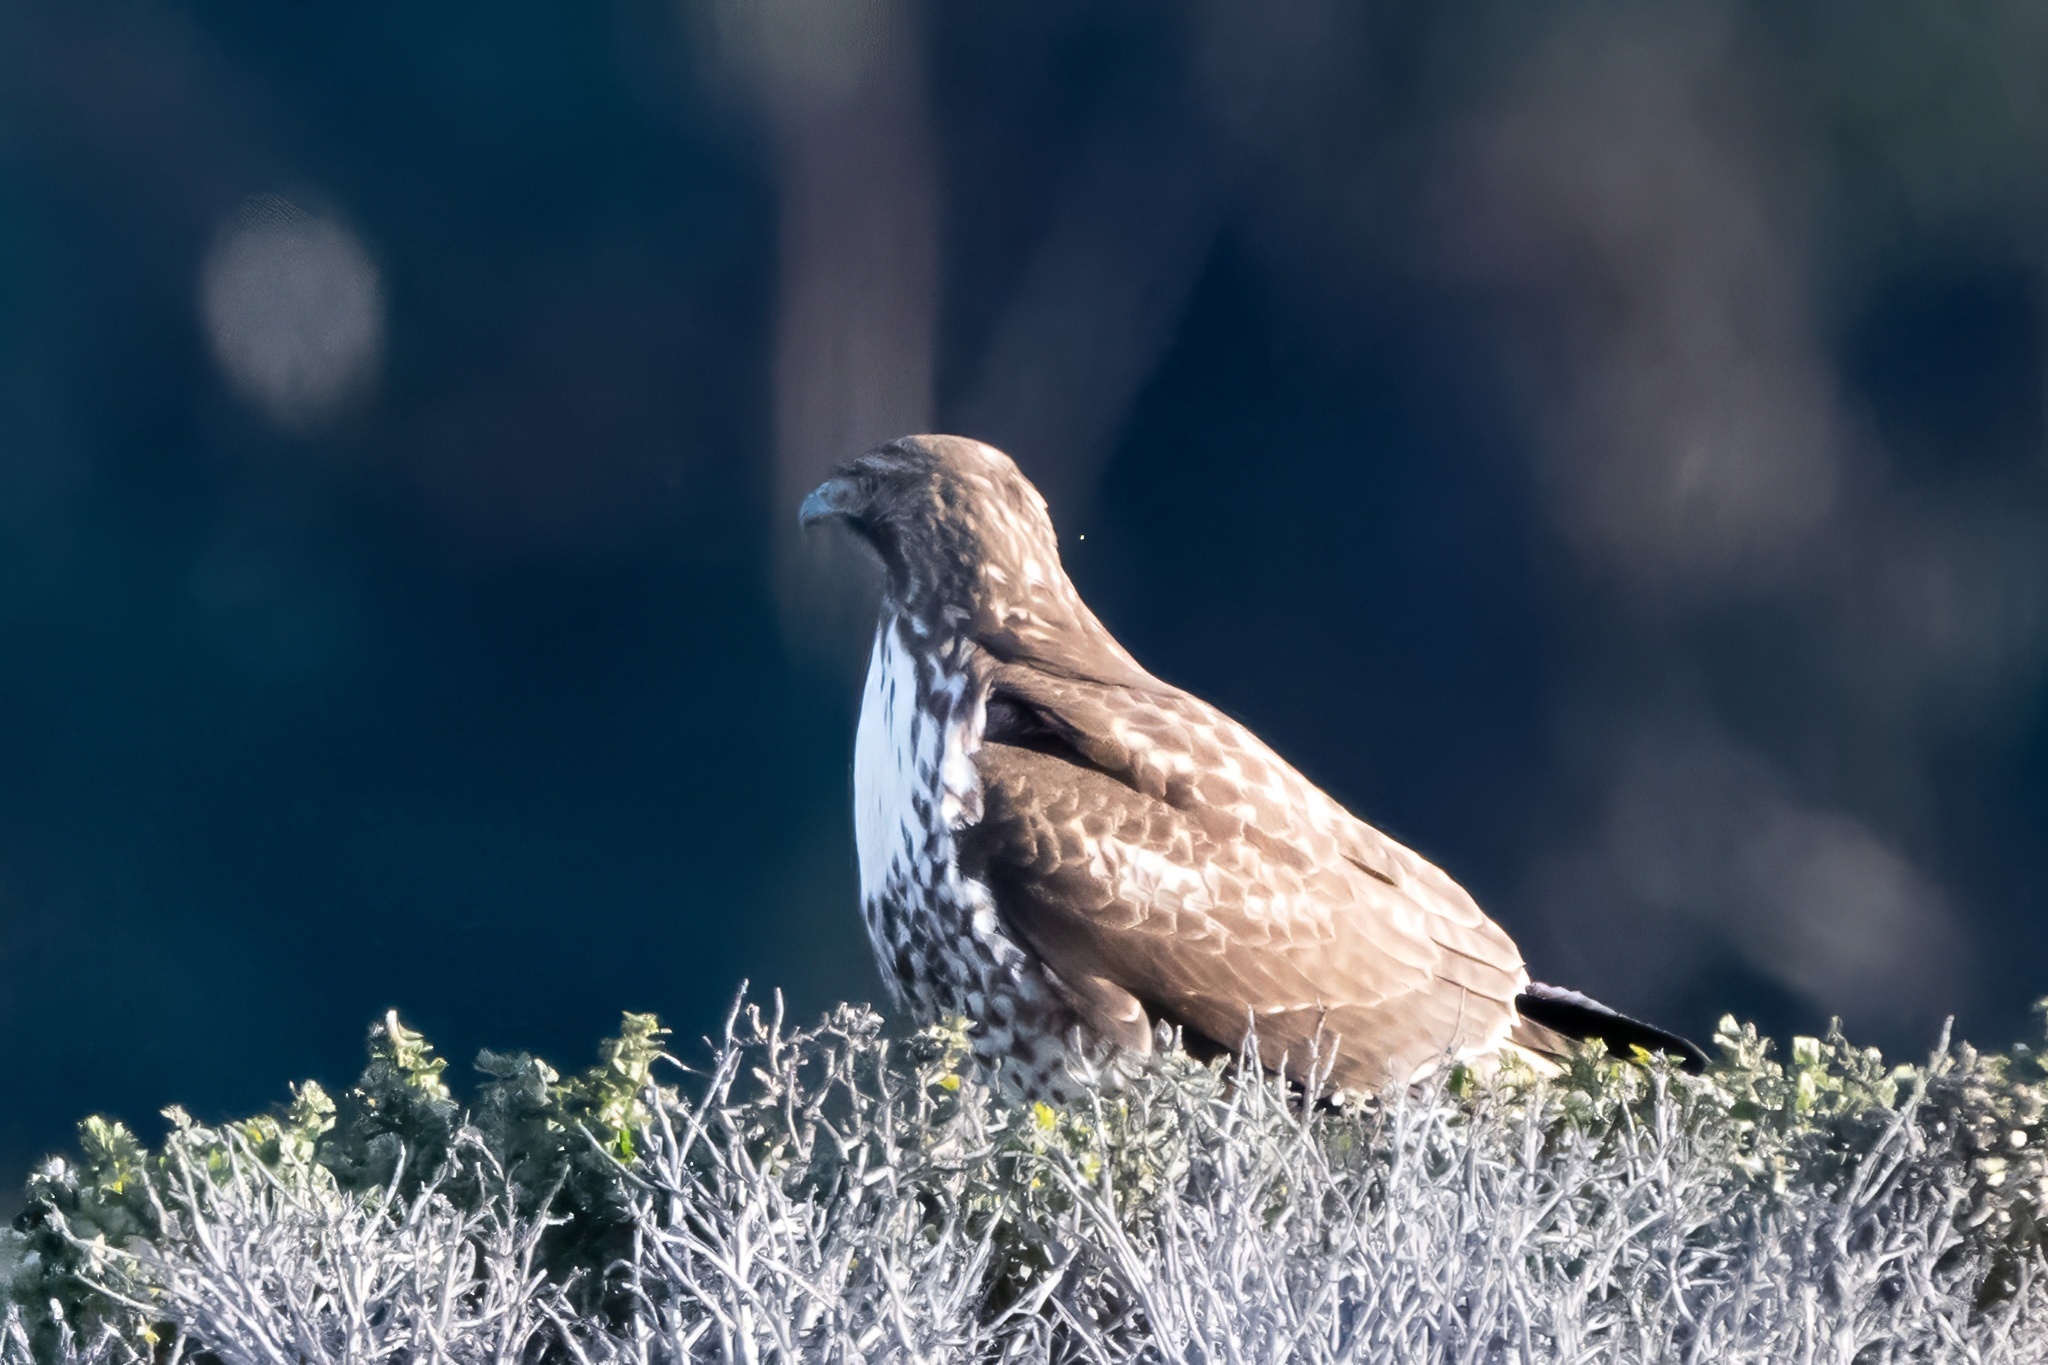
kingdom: Animalia
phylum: Chordata
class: Aves
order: Accipitriformes
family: Accipitridae
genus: Buteo
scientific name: Buteo jamaicensis
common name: Red-tailed hawk
